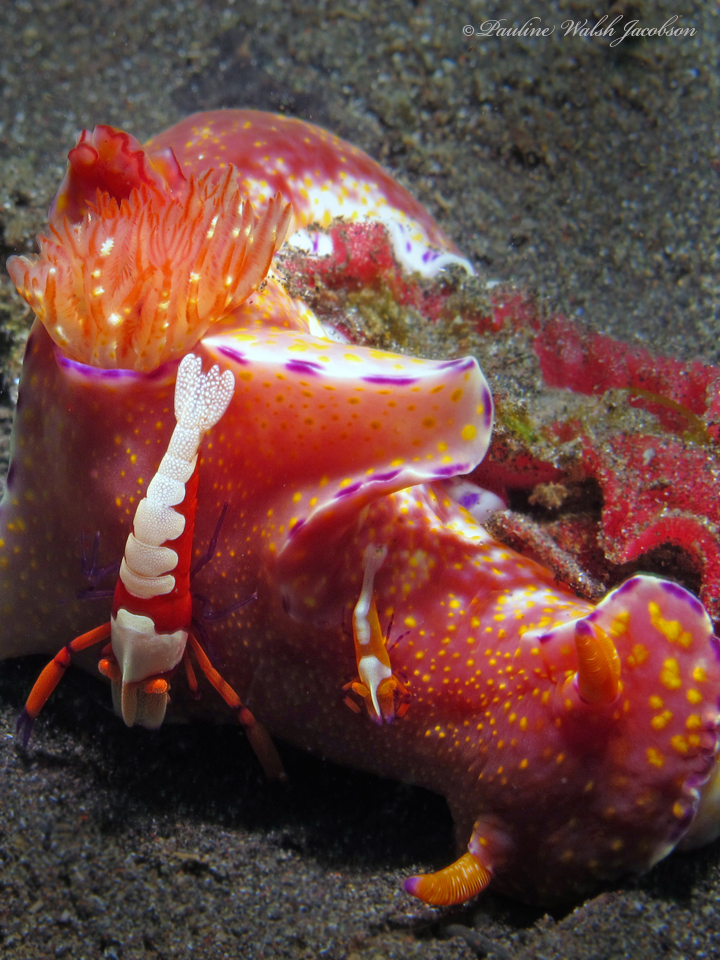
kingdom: Animalia
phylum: Arthropoda
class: Malacostraca
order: Decapoda
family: Palaemonidae
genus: Periclimenes
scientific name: Periclimenes rex
